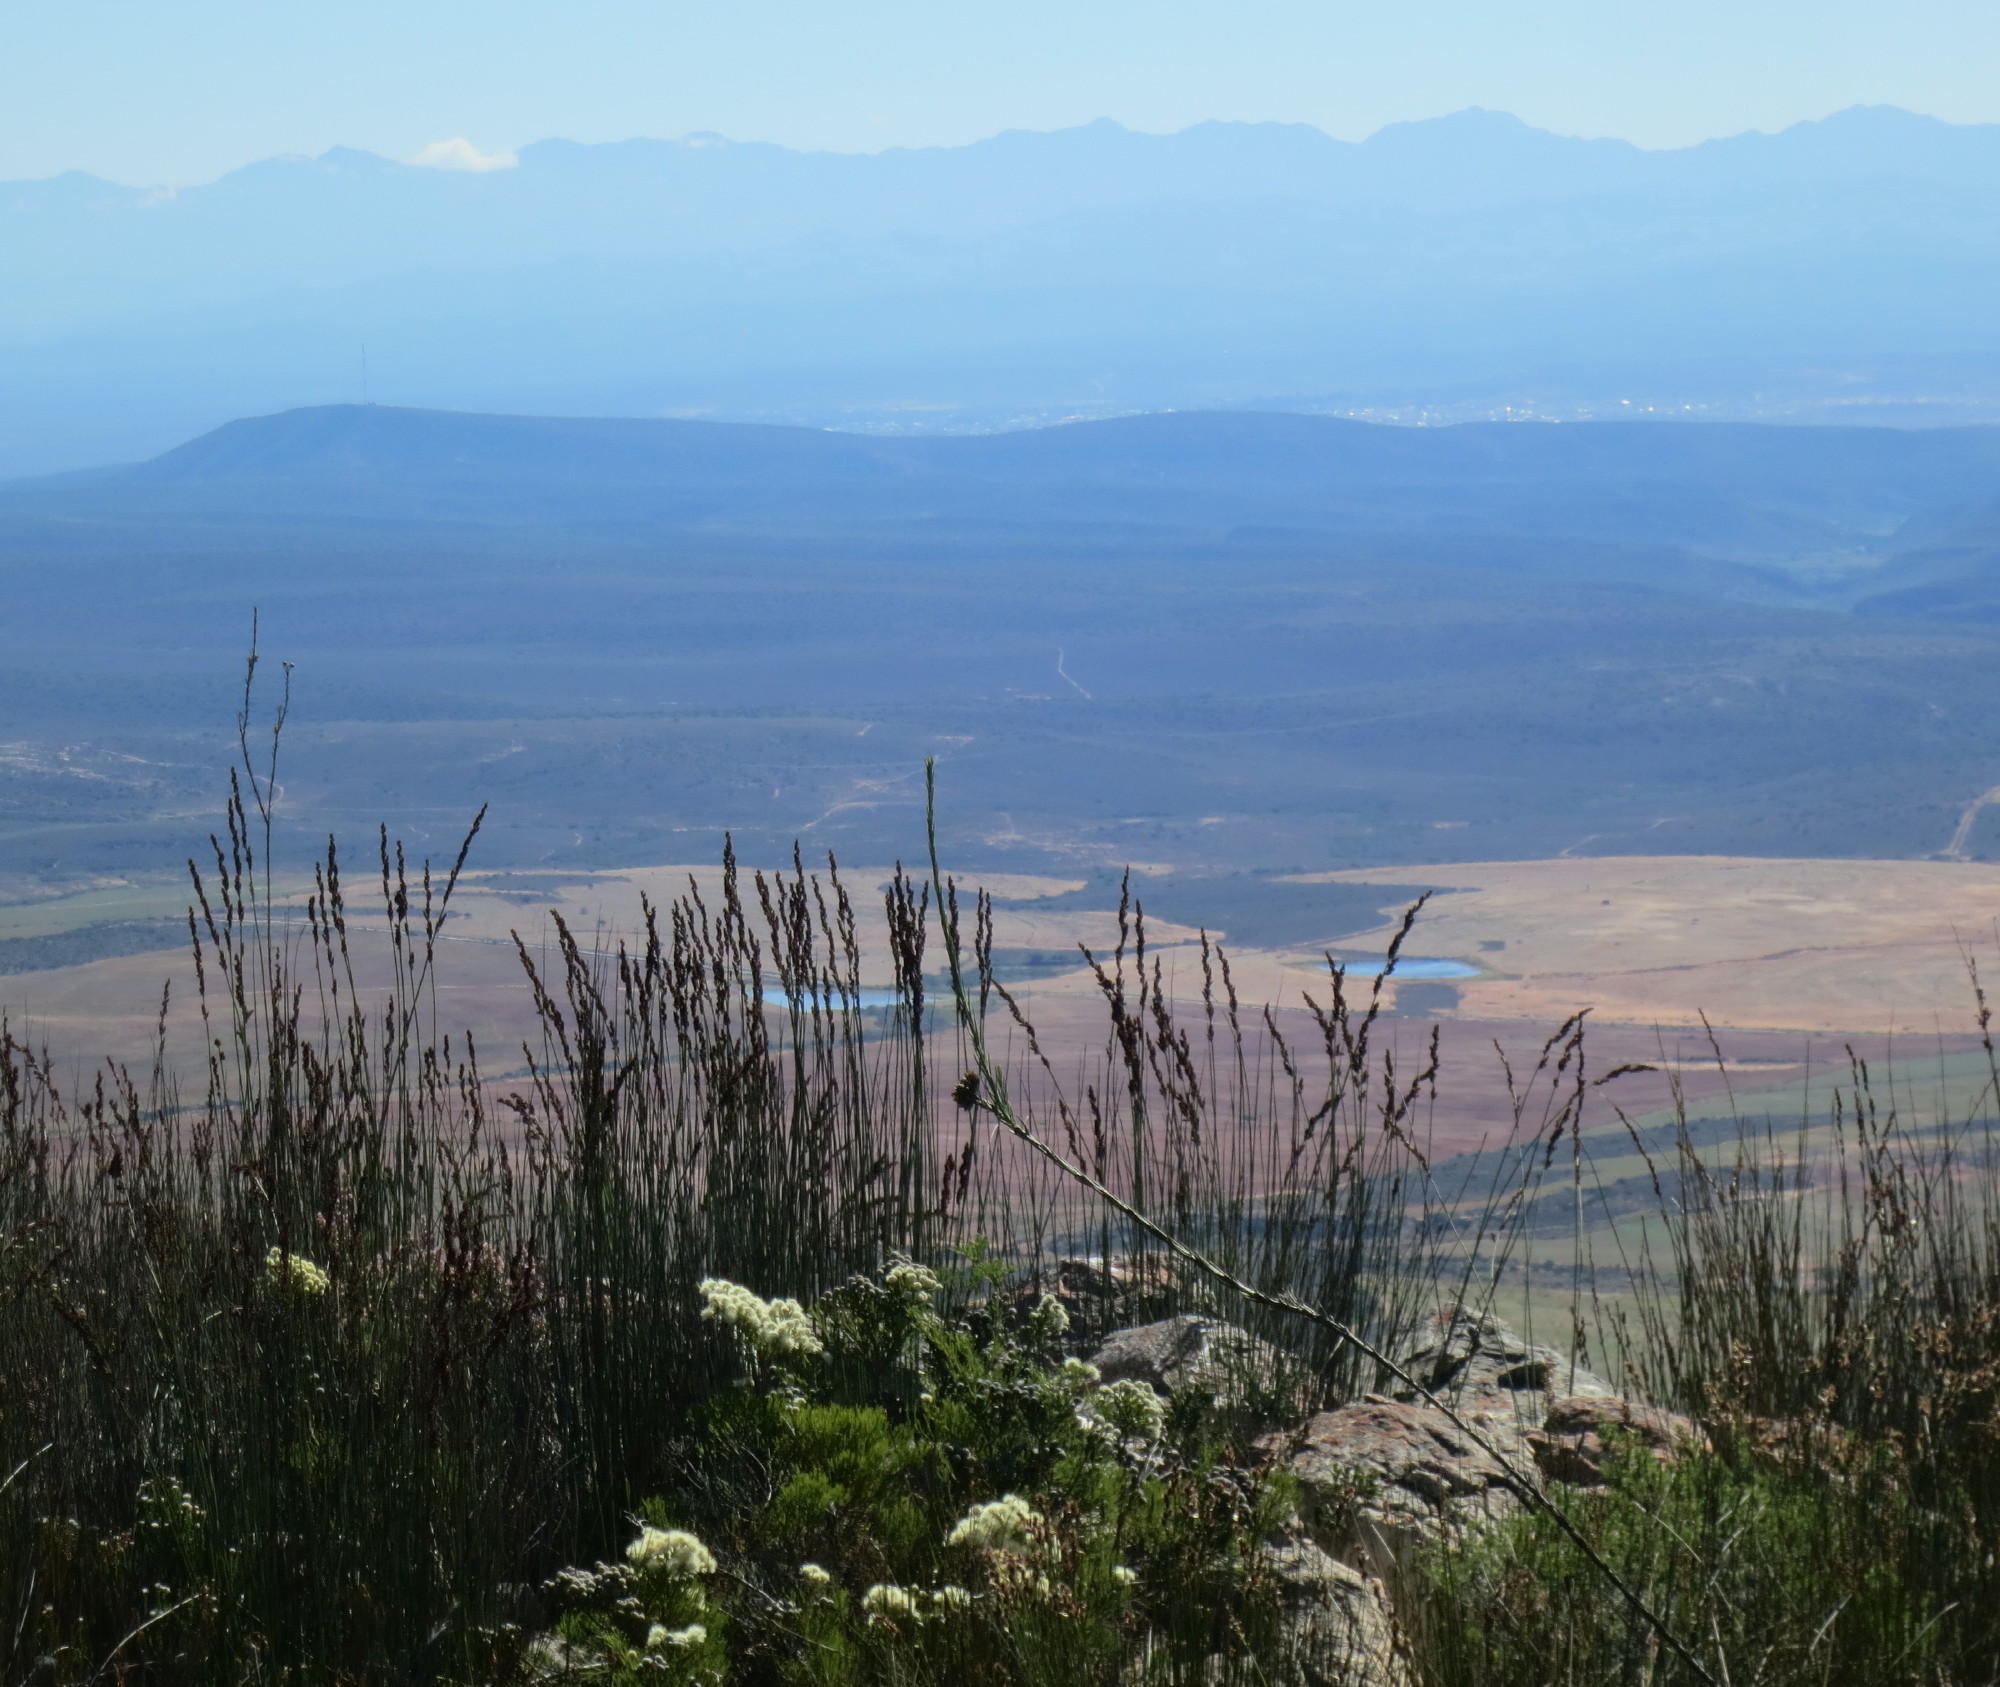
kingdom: Plantae
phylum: Tracheophyta
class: Magnoliopsida
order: Bruniales
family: Bruniaceae
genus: Brunia
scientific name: Brunia noduliflora
